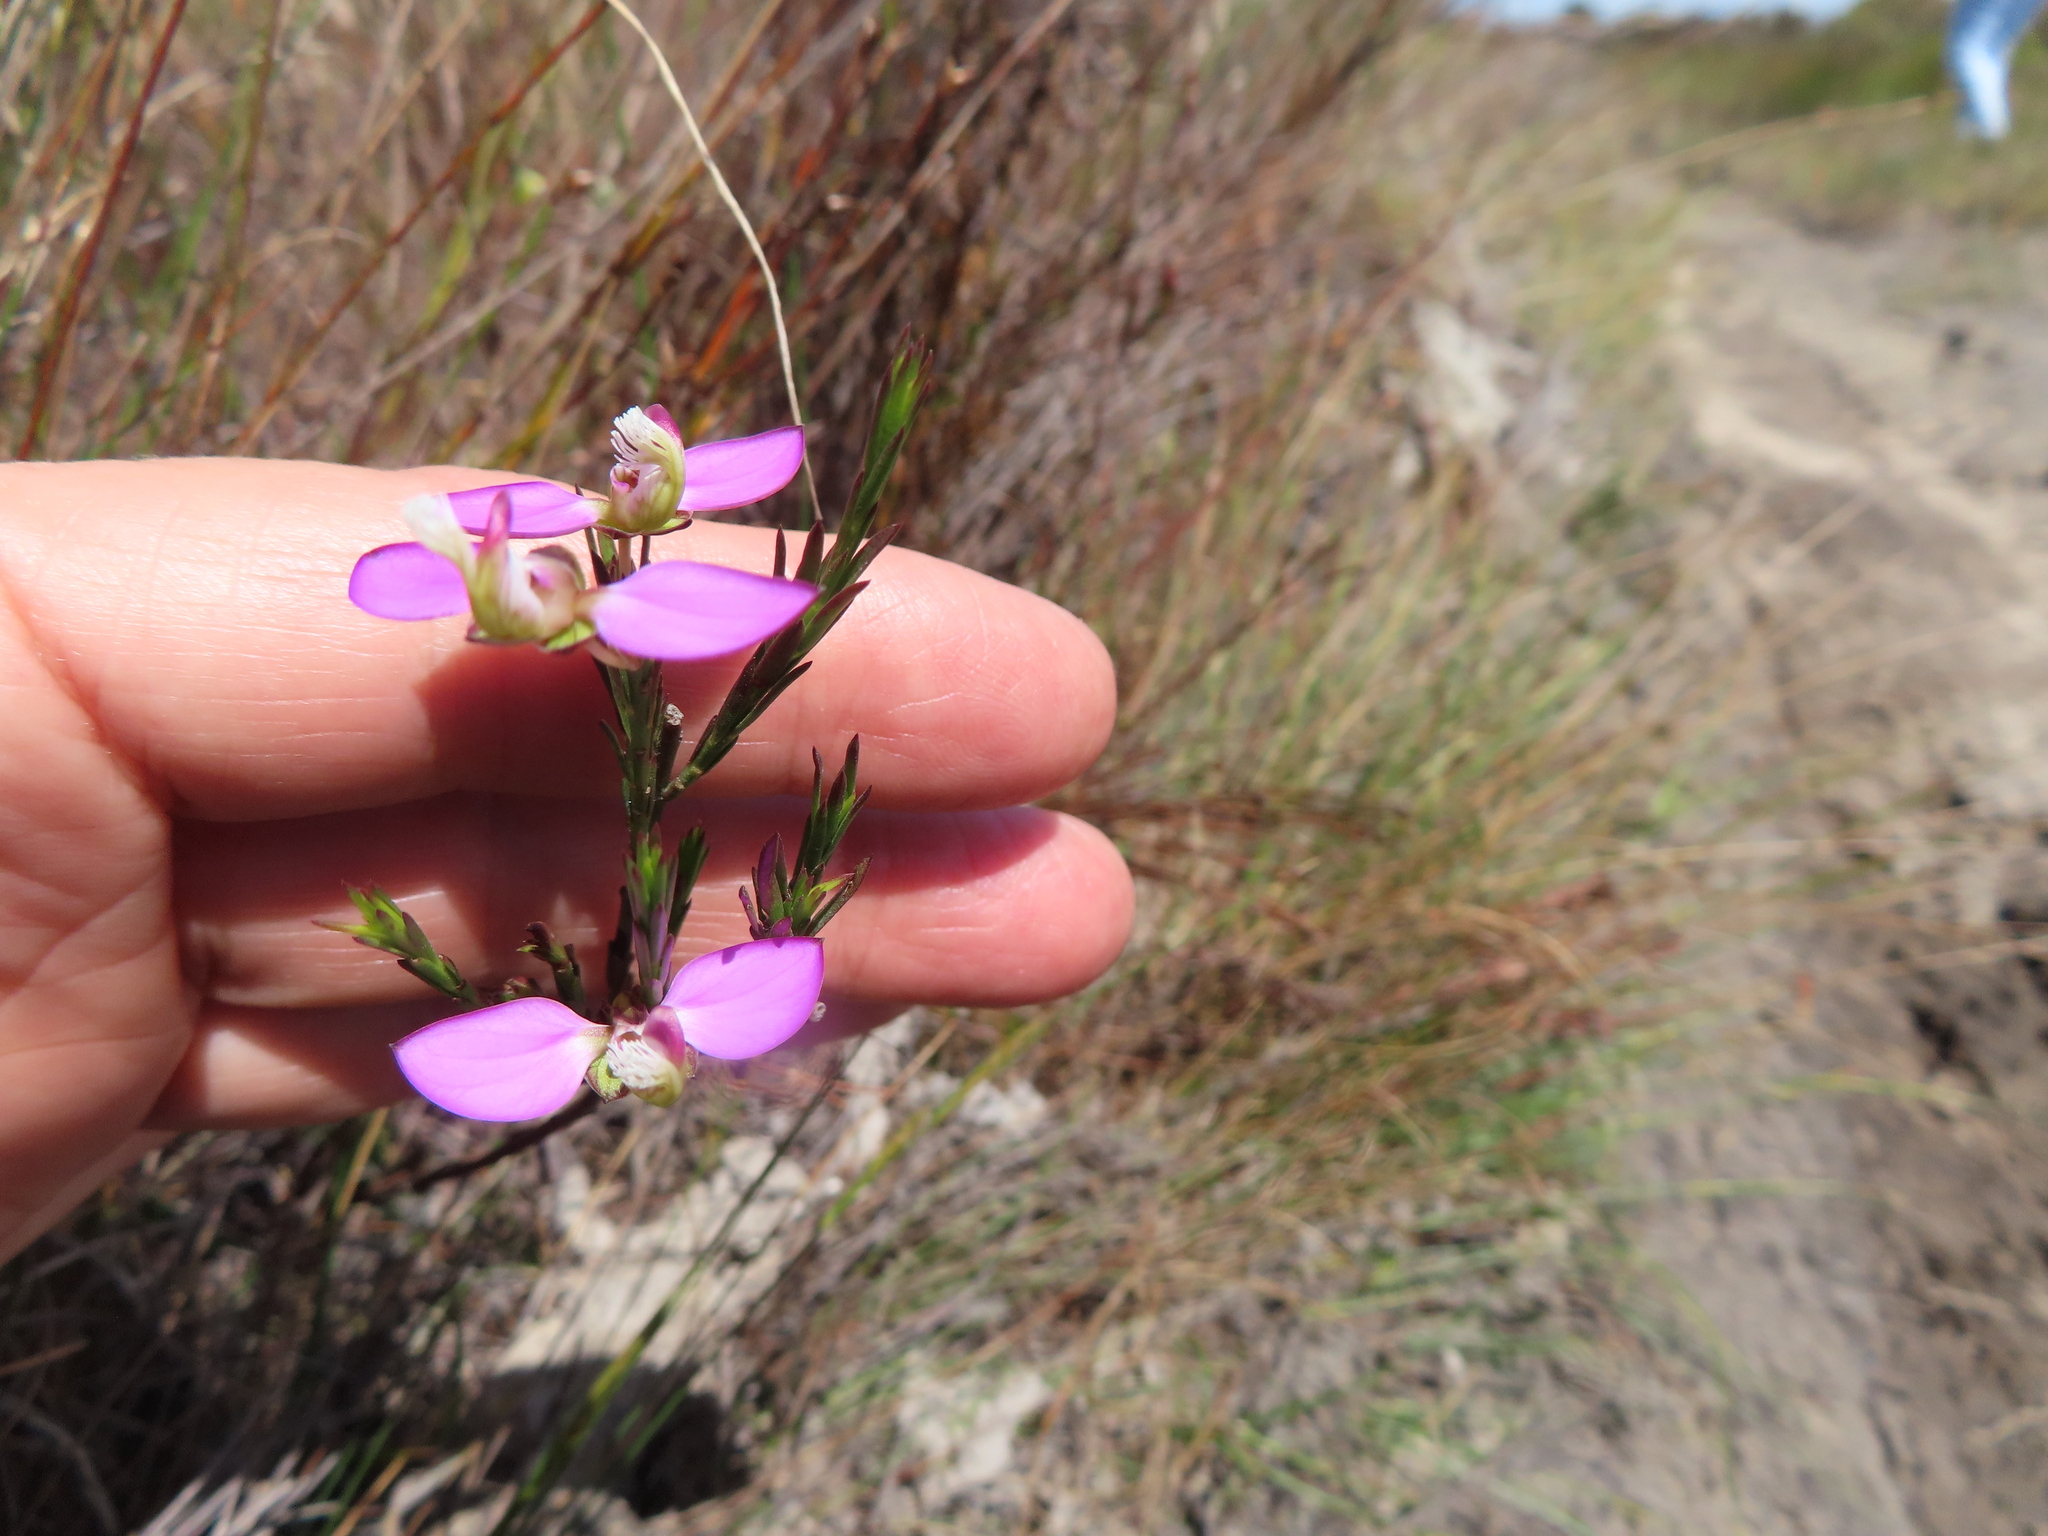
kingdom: Plantae
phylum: Tracheophyta
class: Magnoliopsida
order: Fabales
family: Polygalaceae
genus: Polygala
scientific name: Polygala bracteolata
